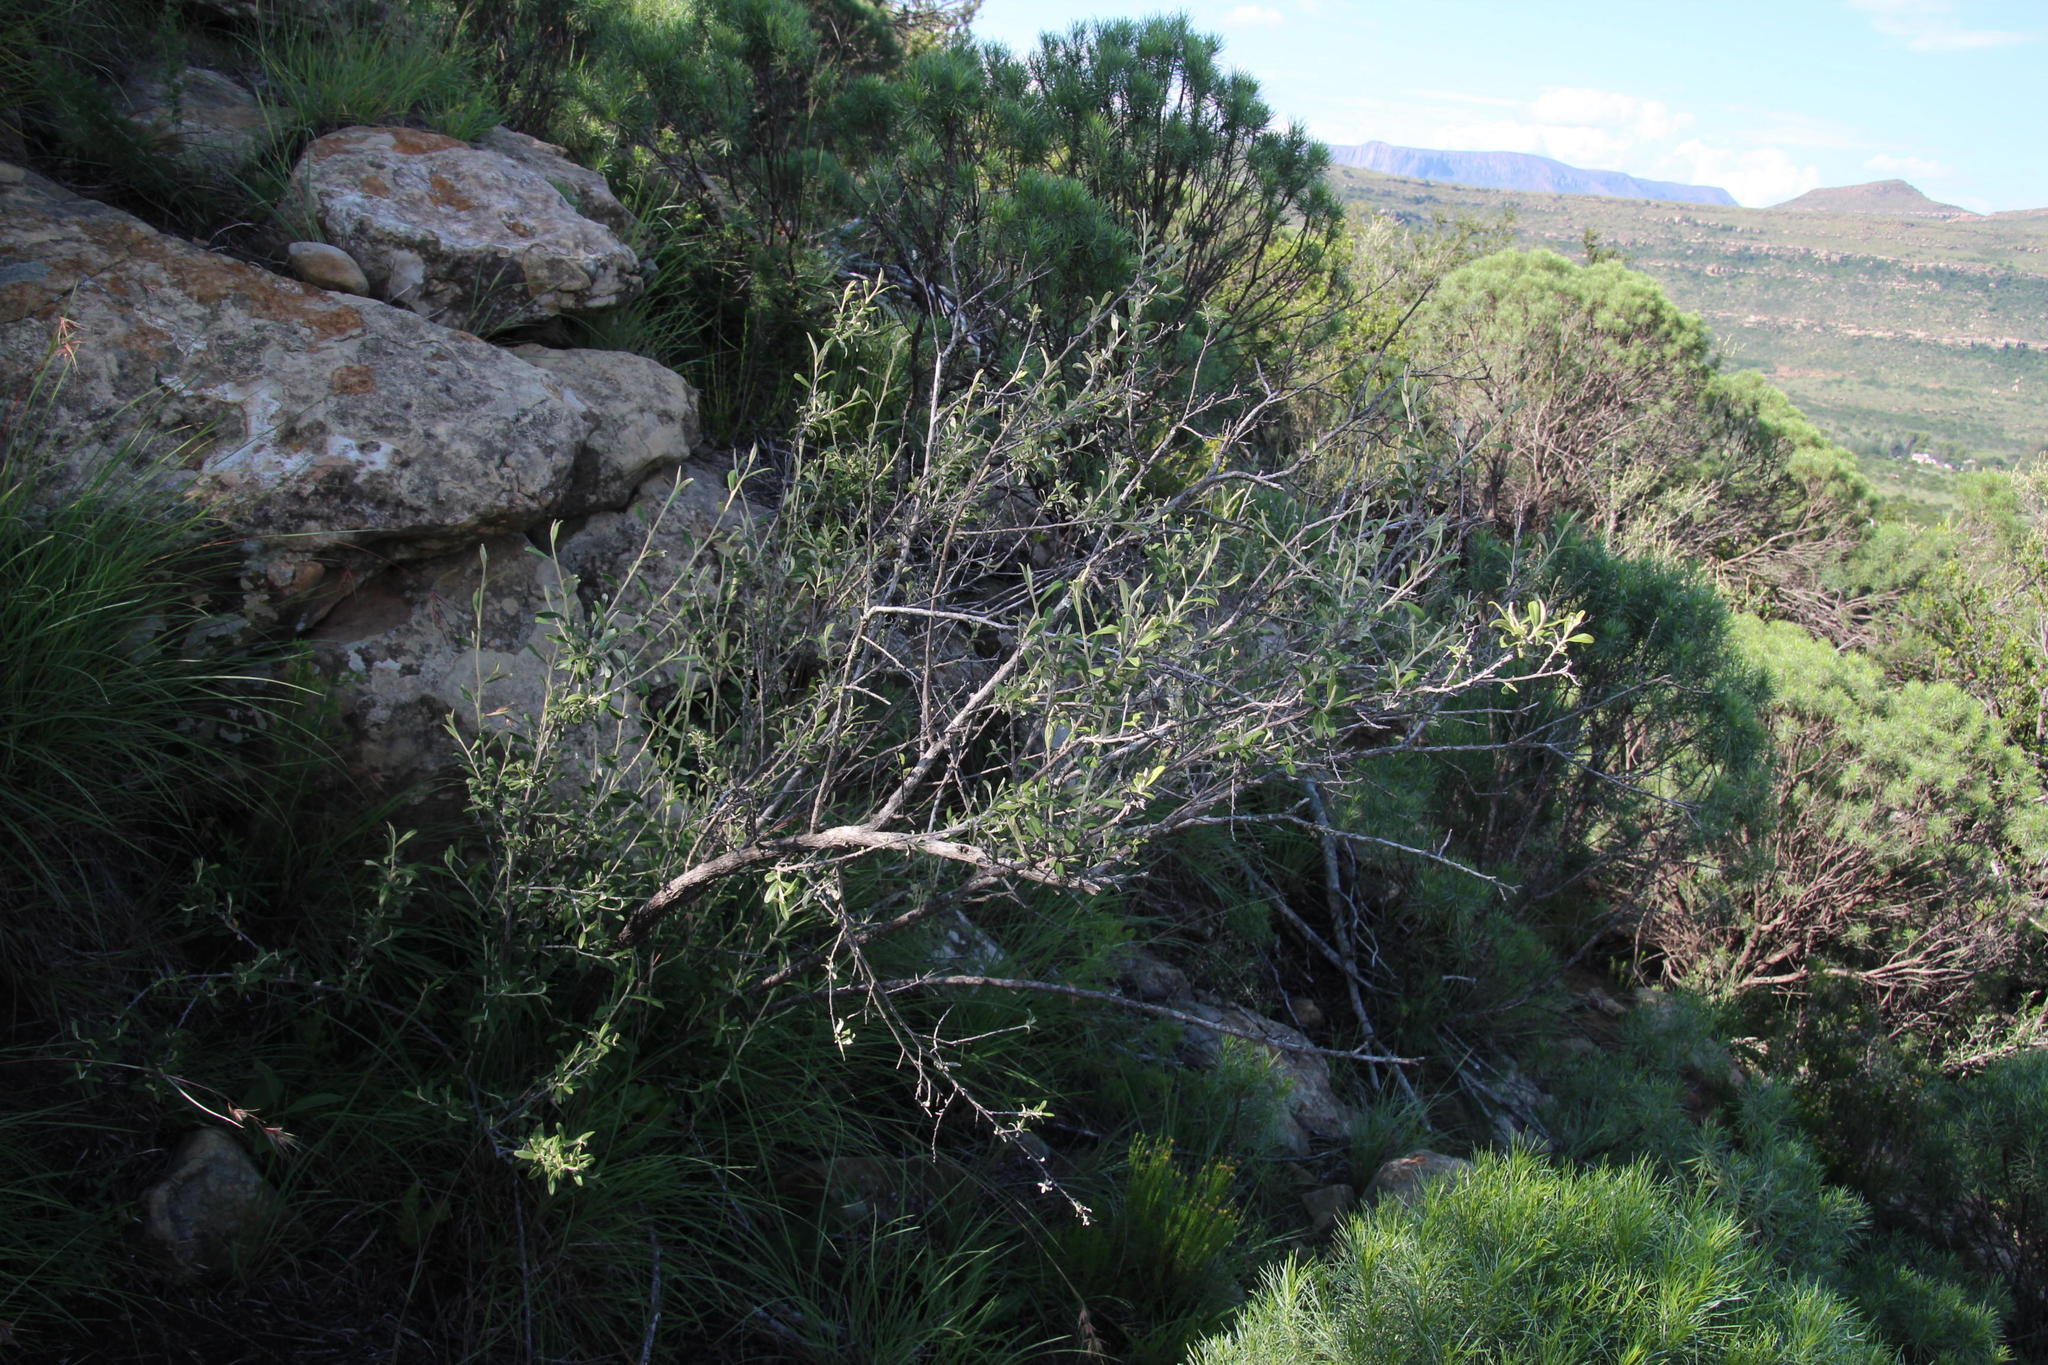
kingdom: Plantae
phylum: Tracheophyta
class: Magnoliopsida
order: Asterales
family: Asteraceae
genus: Tarchonanthus
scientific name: Tarchonanthus minor
